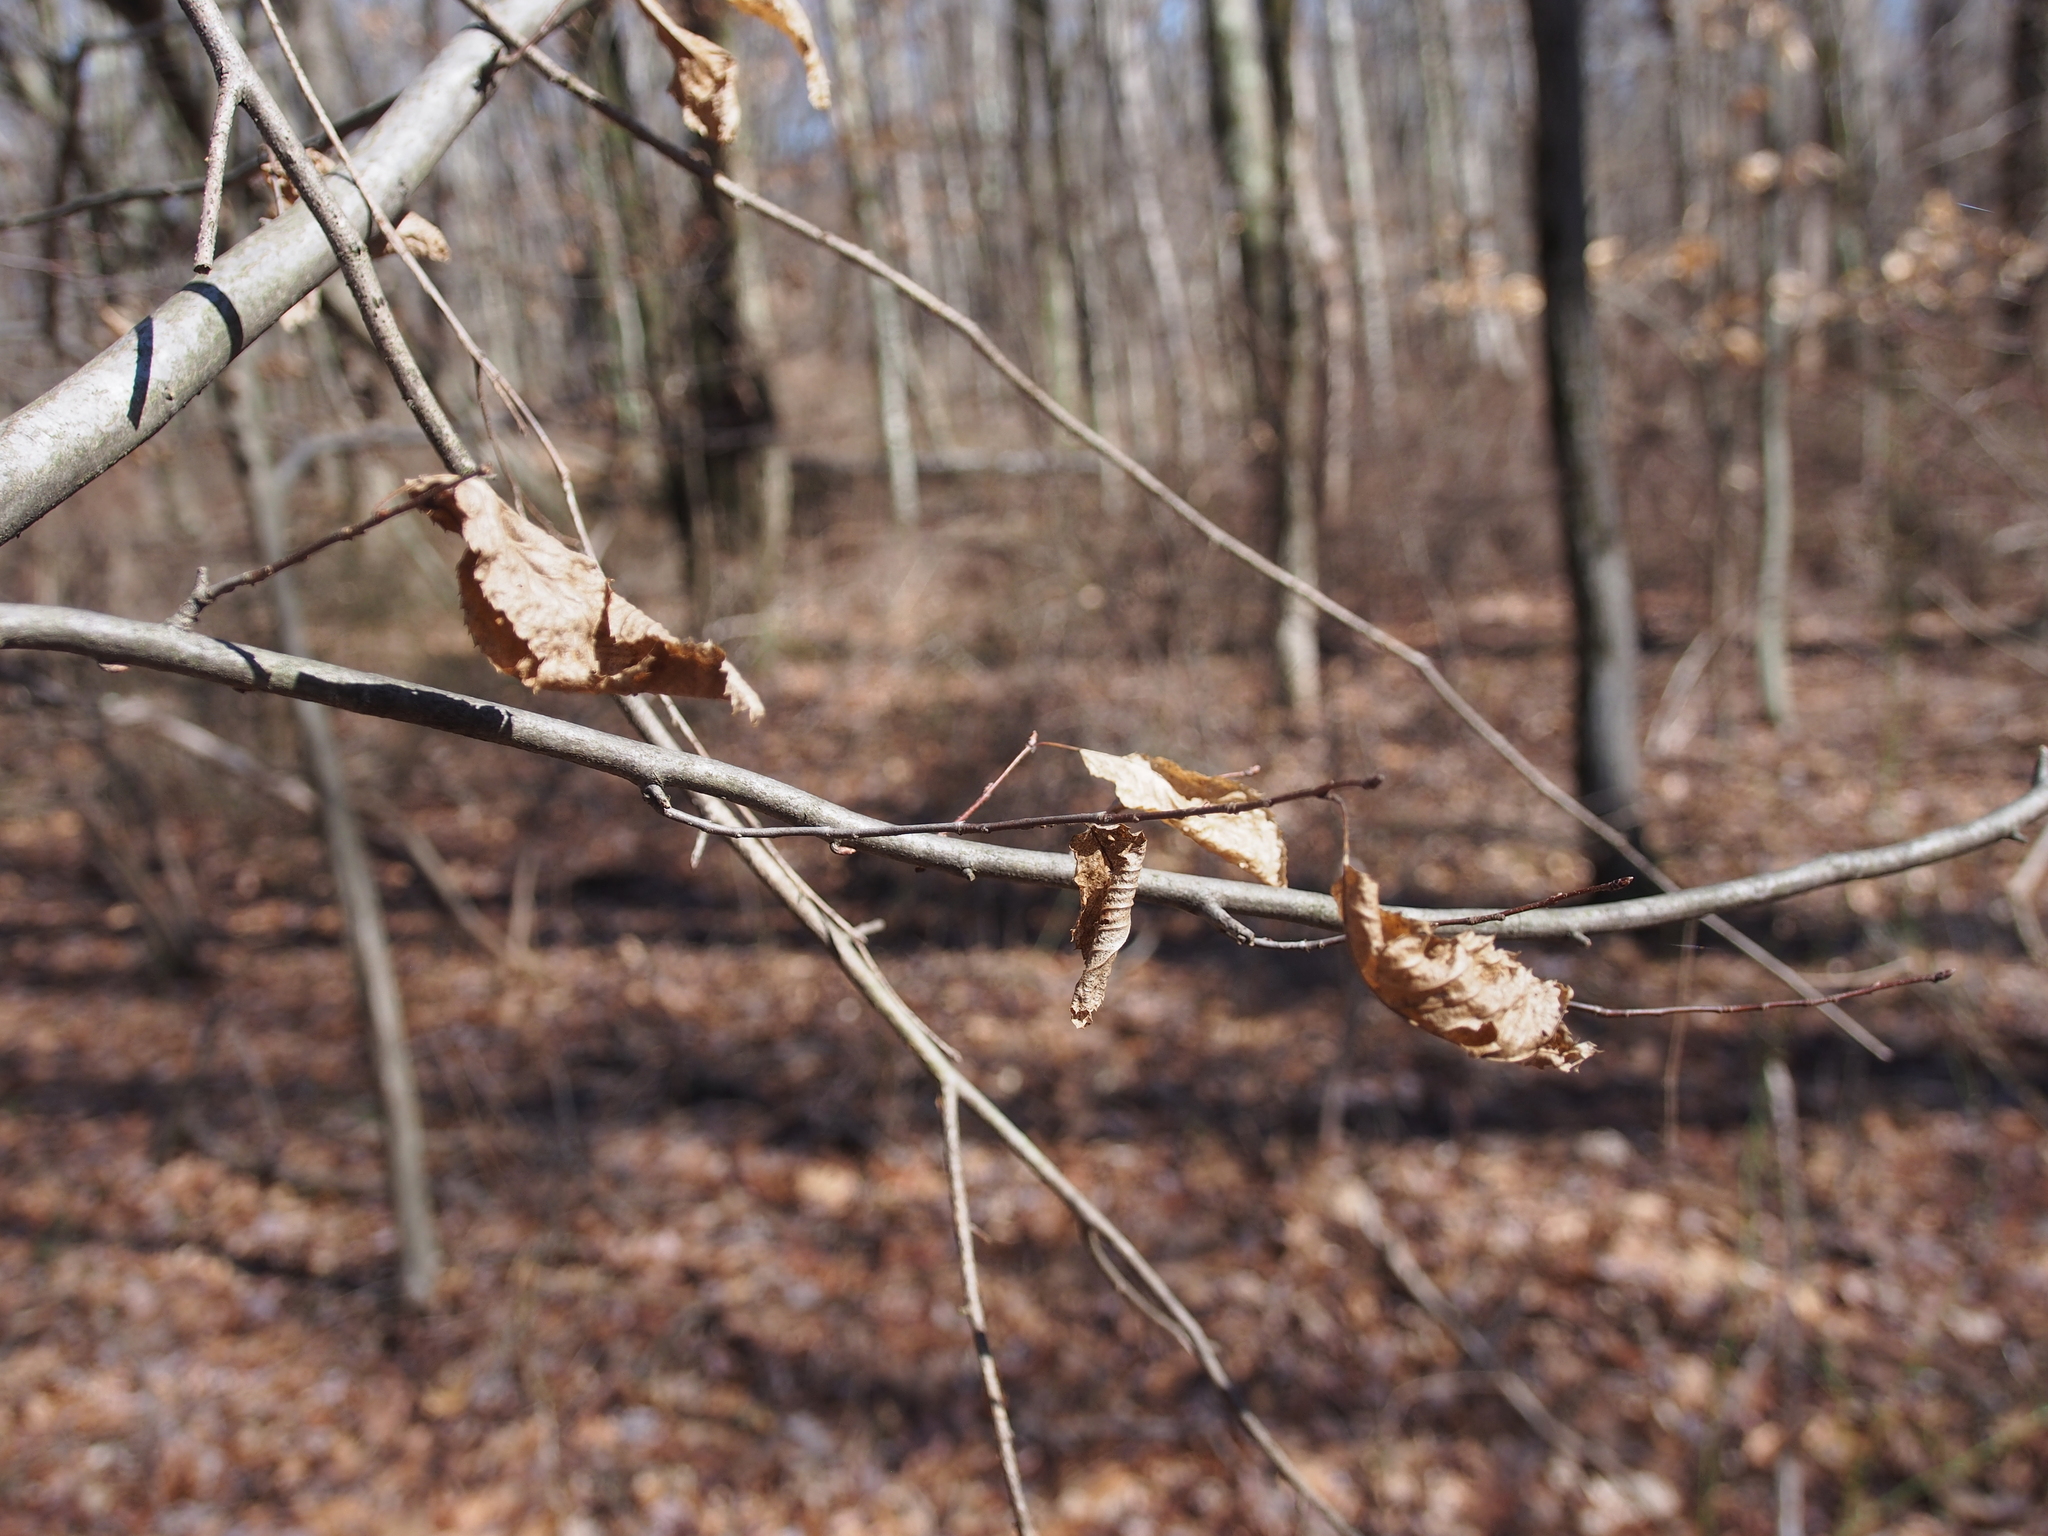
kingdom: Plantae
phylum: Tracheophyta
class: Magnoliopsida
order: Fagales
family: Betulaceae
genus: Carpinus
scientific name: Carpinus caroliniana
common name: American hornbeam
